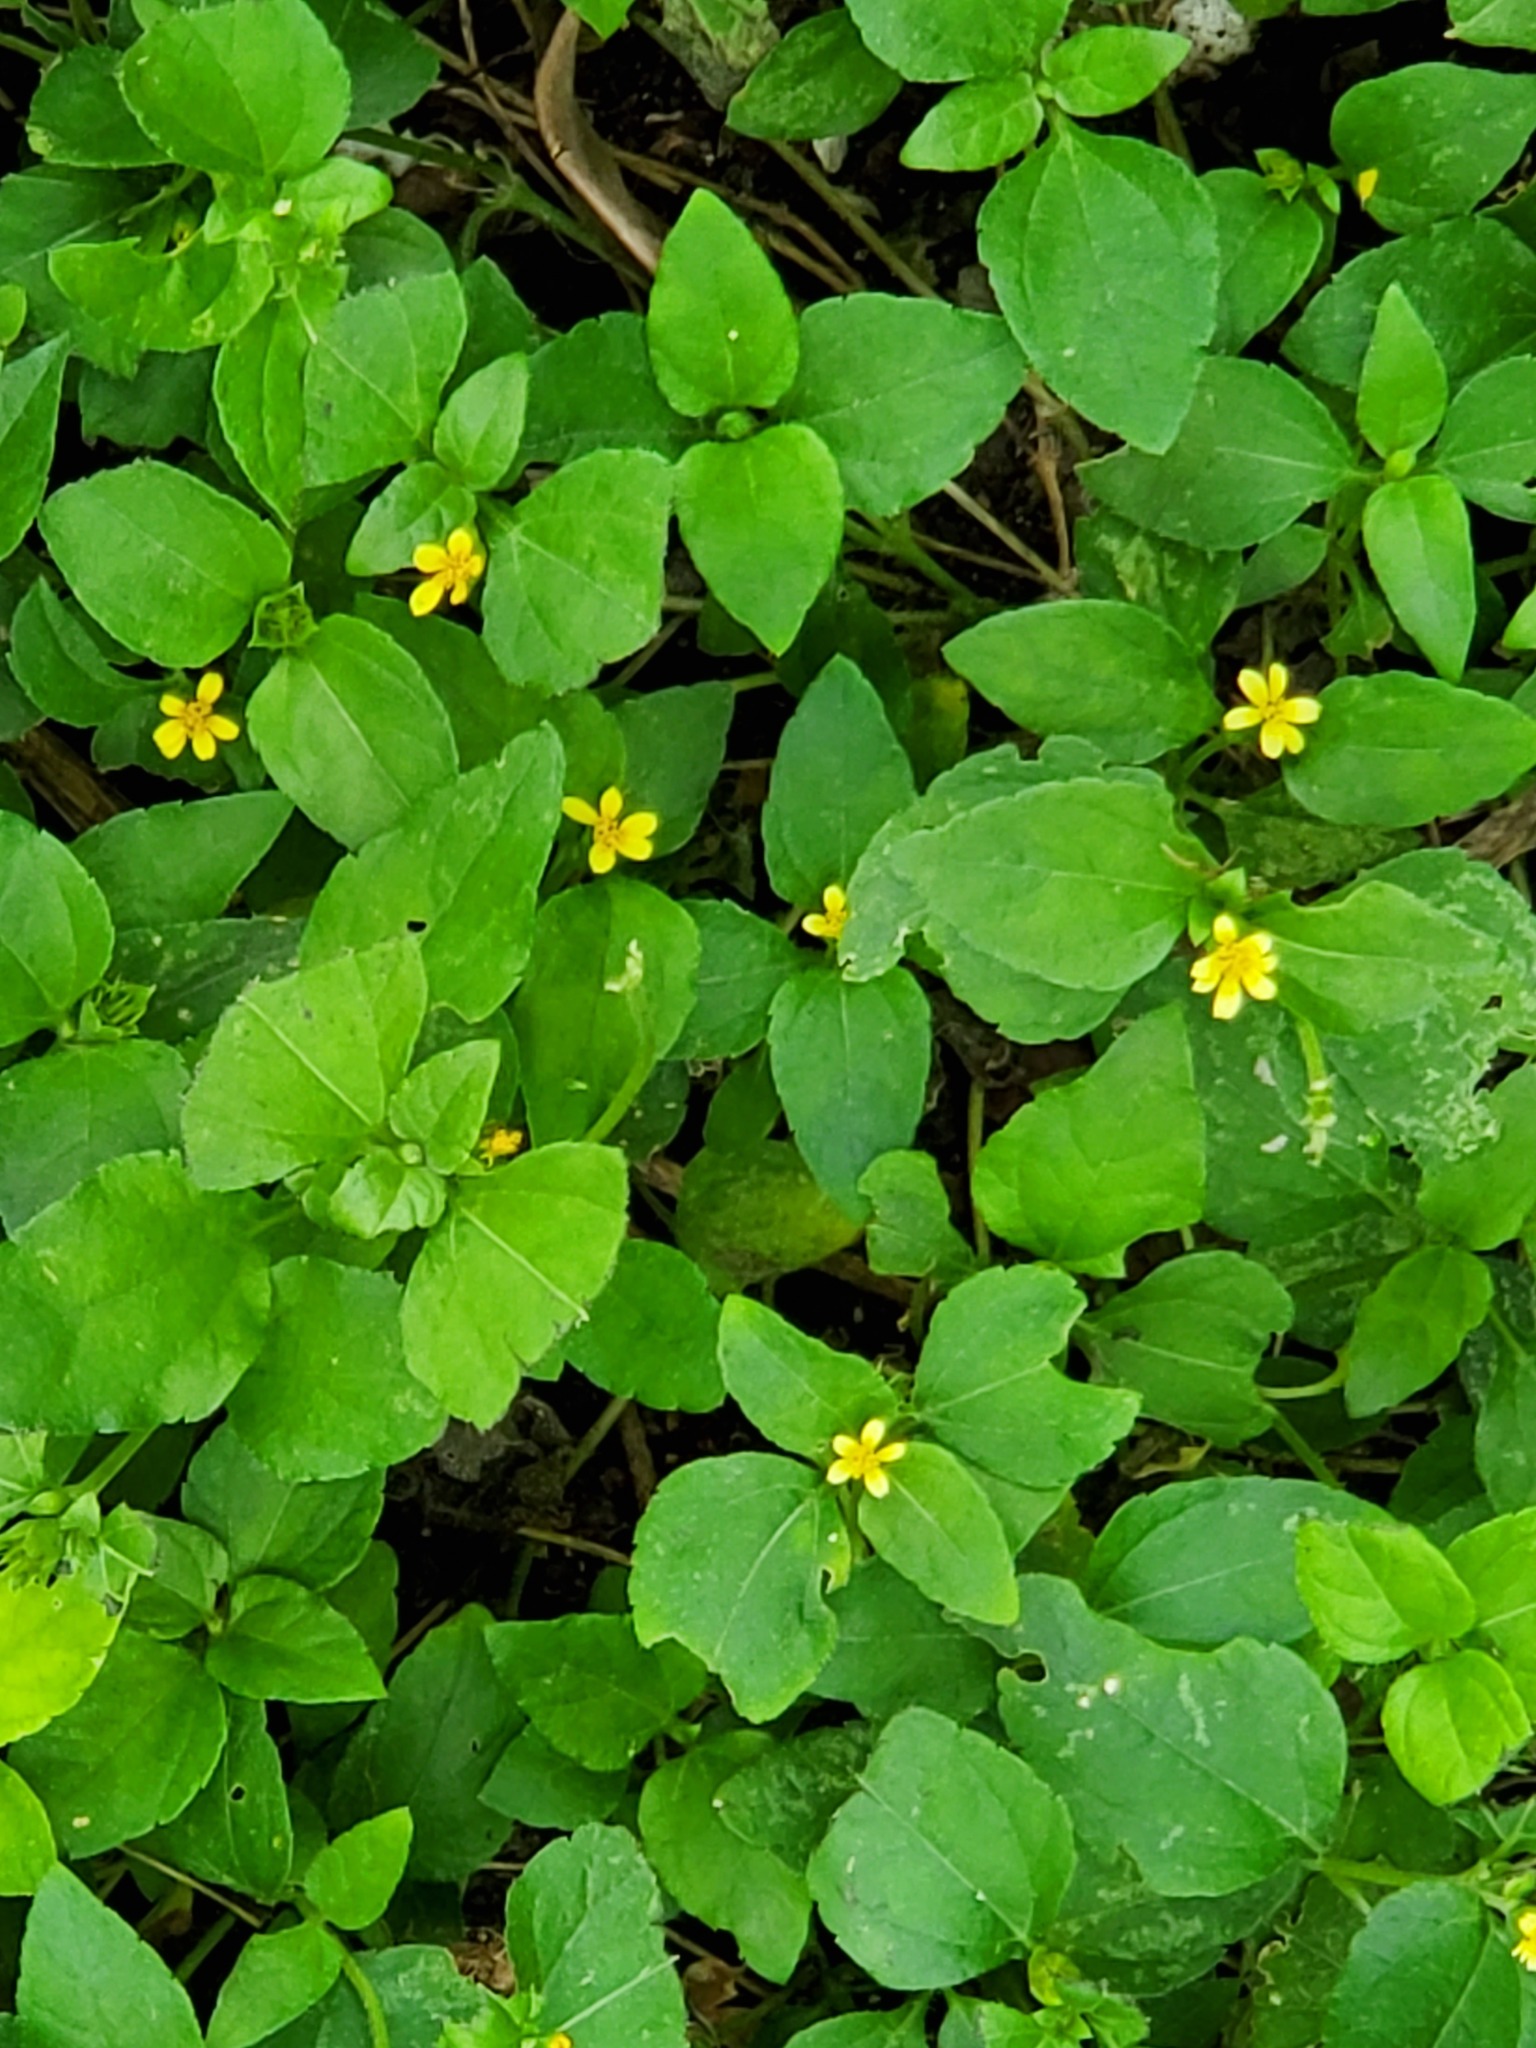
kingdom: Plantae
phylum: Tracheophyta
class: Magnoliopsida
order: Asterales
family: Asteraceae
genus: Calyptocarpus
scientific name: Calyptocarpus vialis
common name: Straggler daisy
